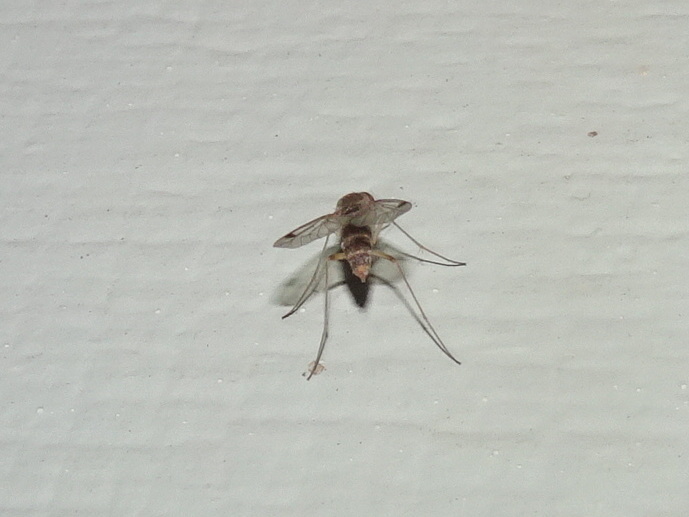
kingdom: Animalia
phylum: Arthropoda
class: Insecta
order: Diptera
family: Rhagionidae
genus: Chrysopilus
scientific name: Chrysopilus modestus
